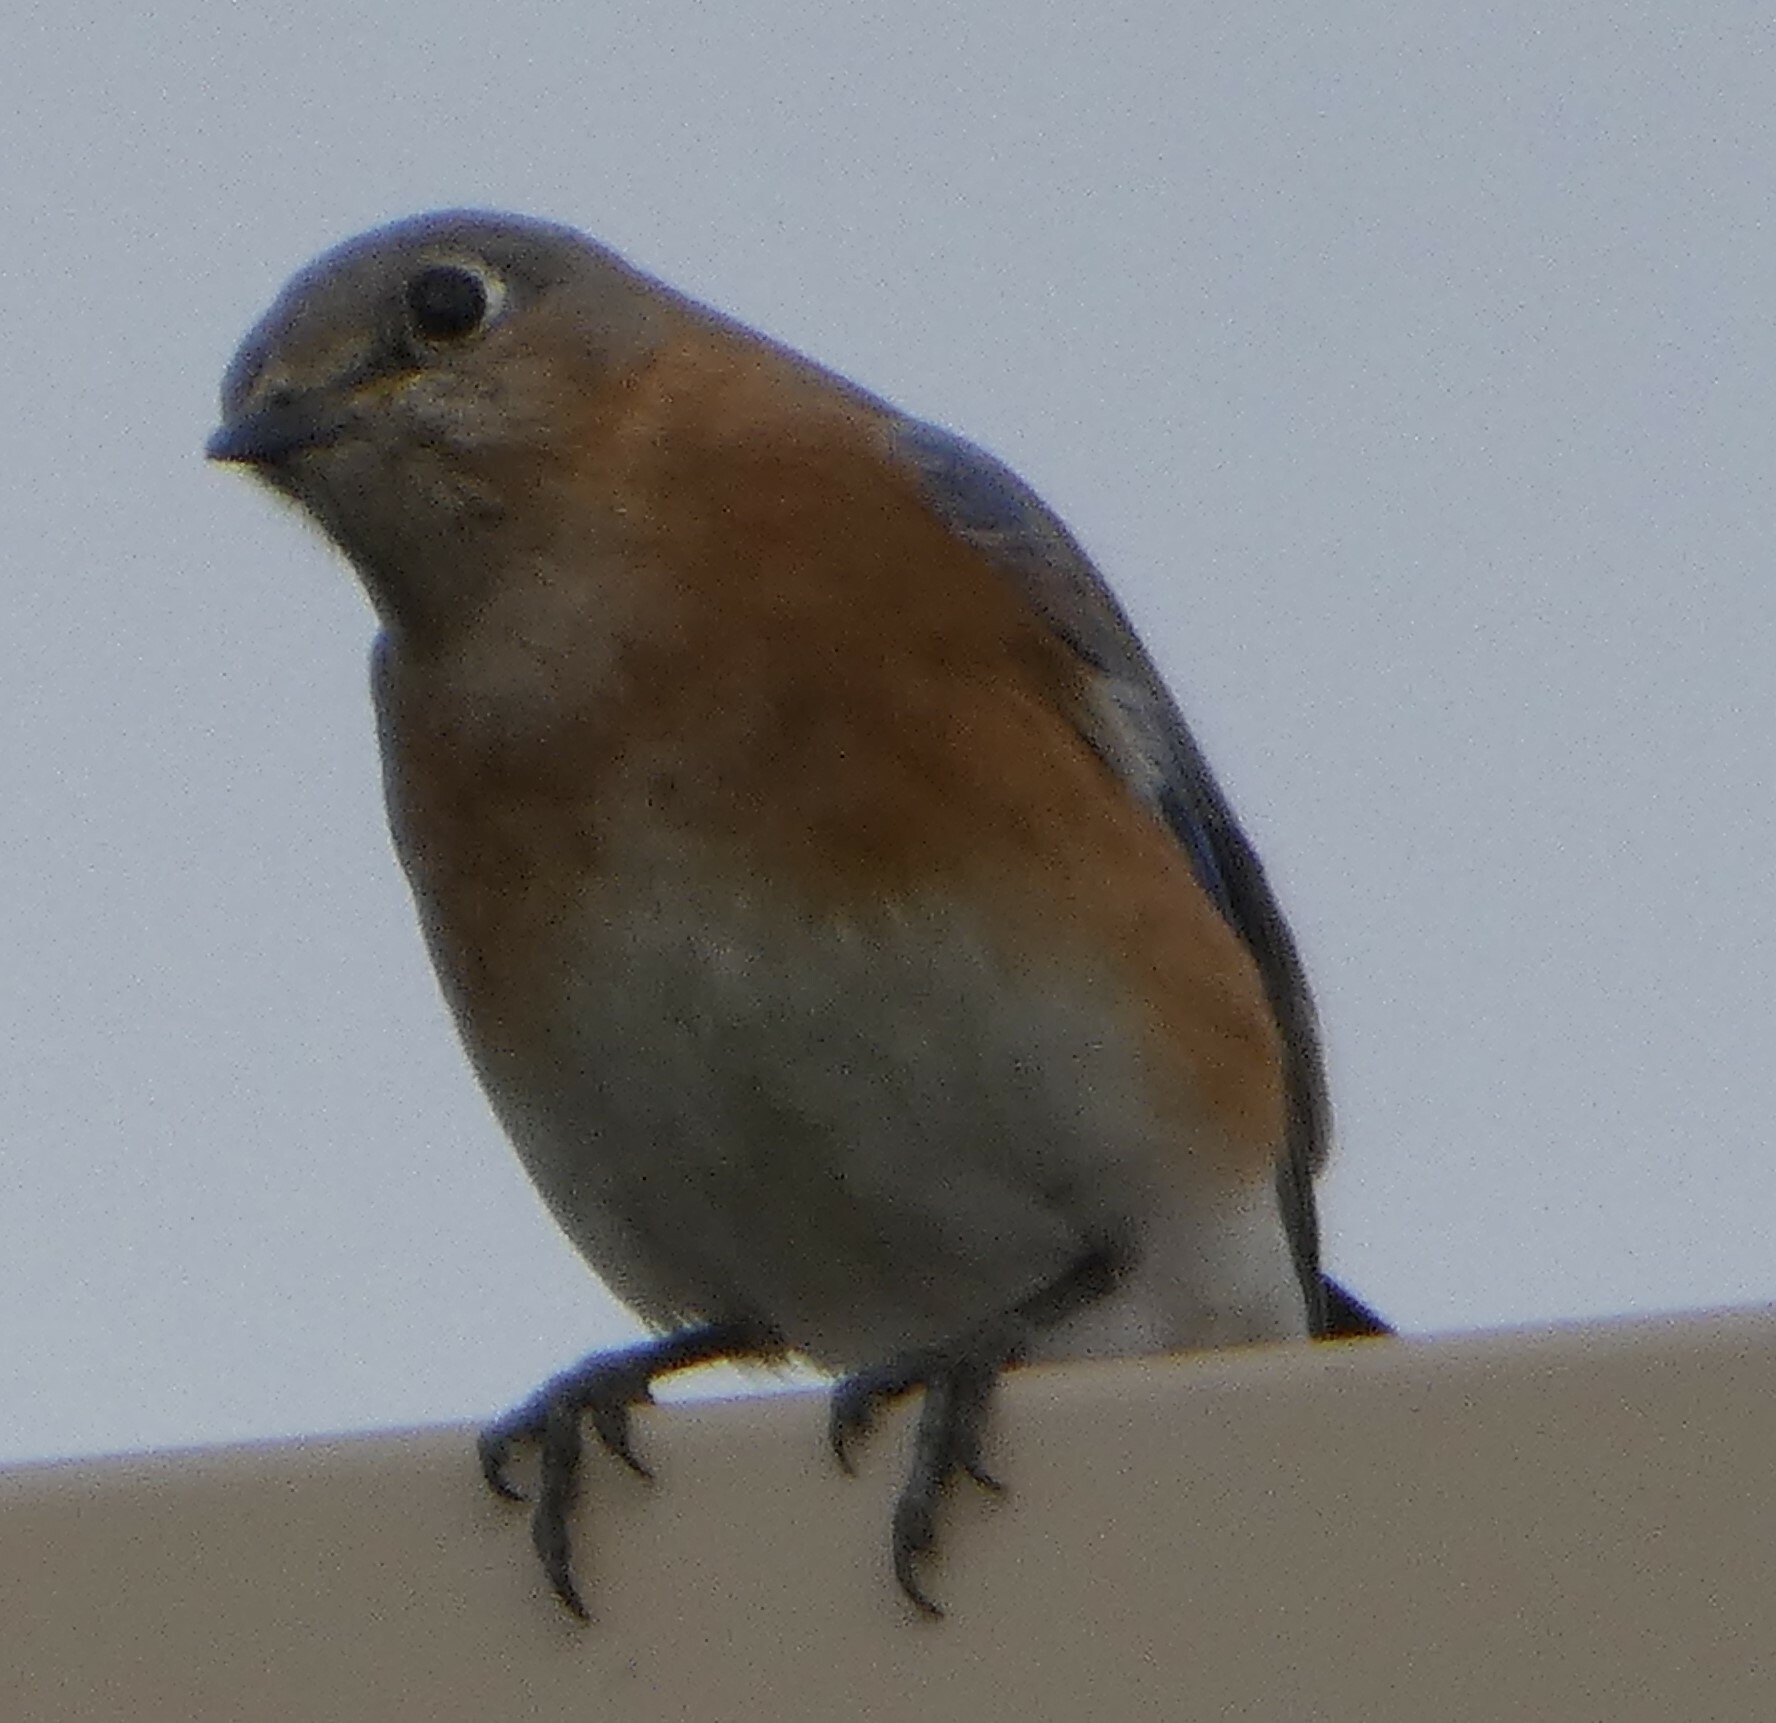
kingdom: Animalia
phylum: Chordata
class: Aves
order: Passeriformes
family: Turdidae
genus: Sialia
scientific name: Sialia sialis
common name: Eastern bluebird
